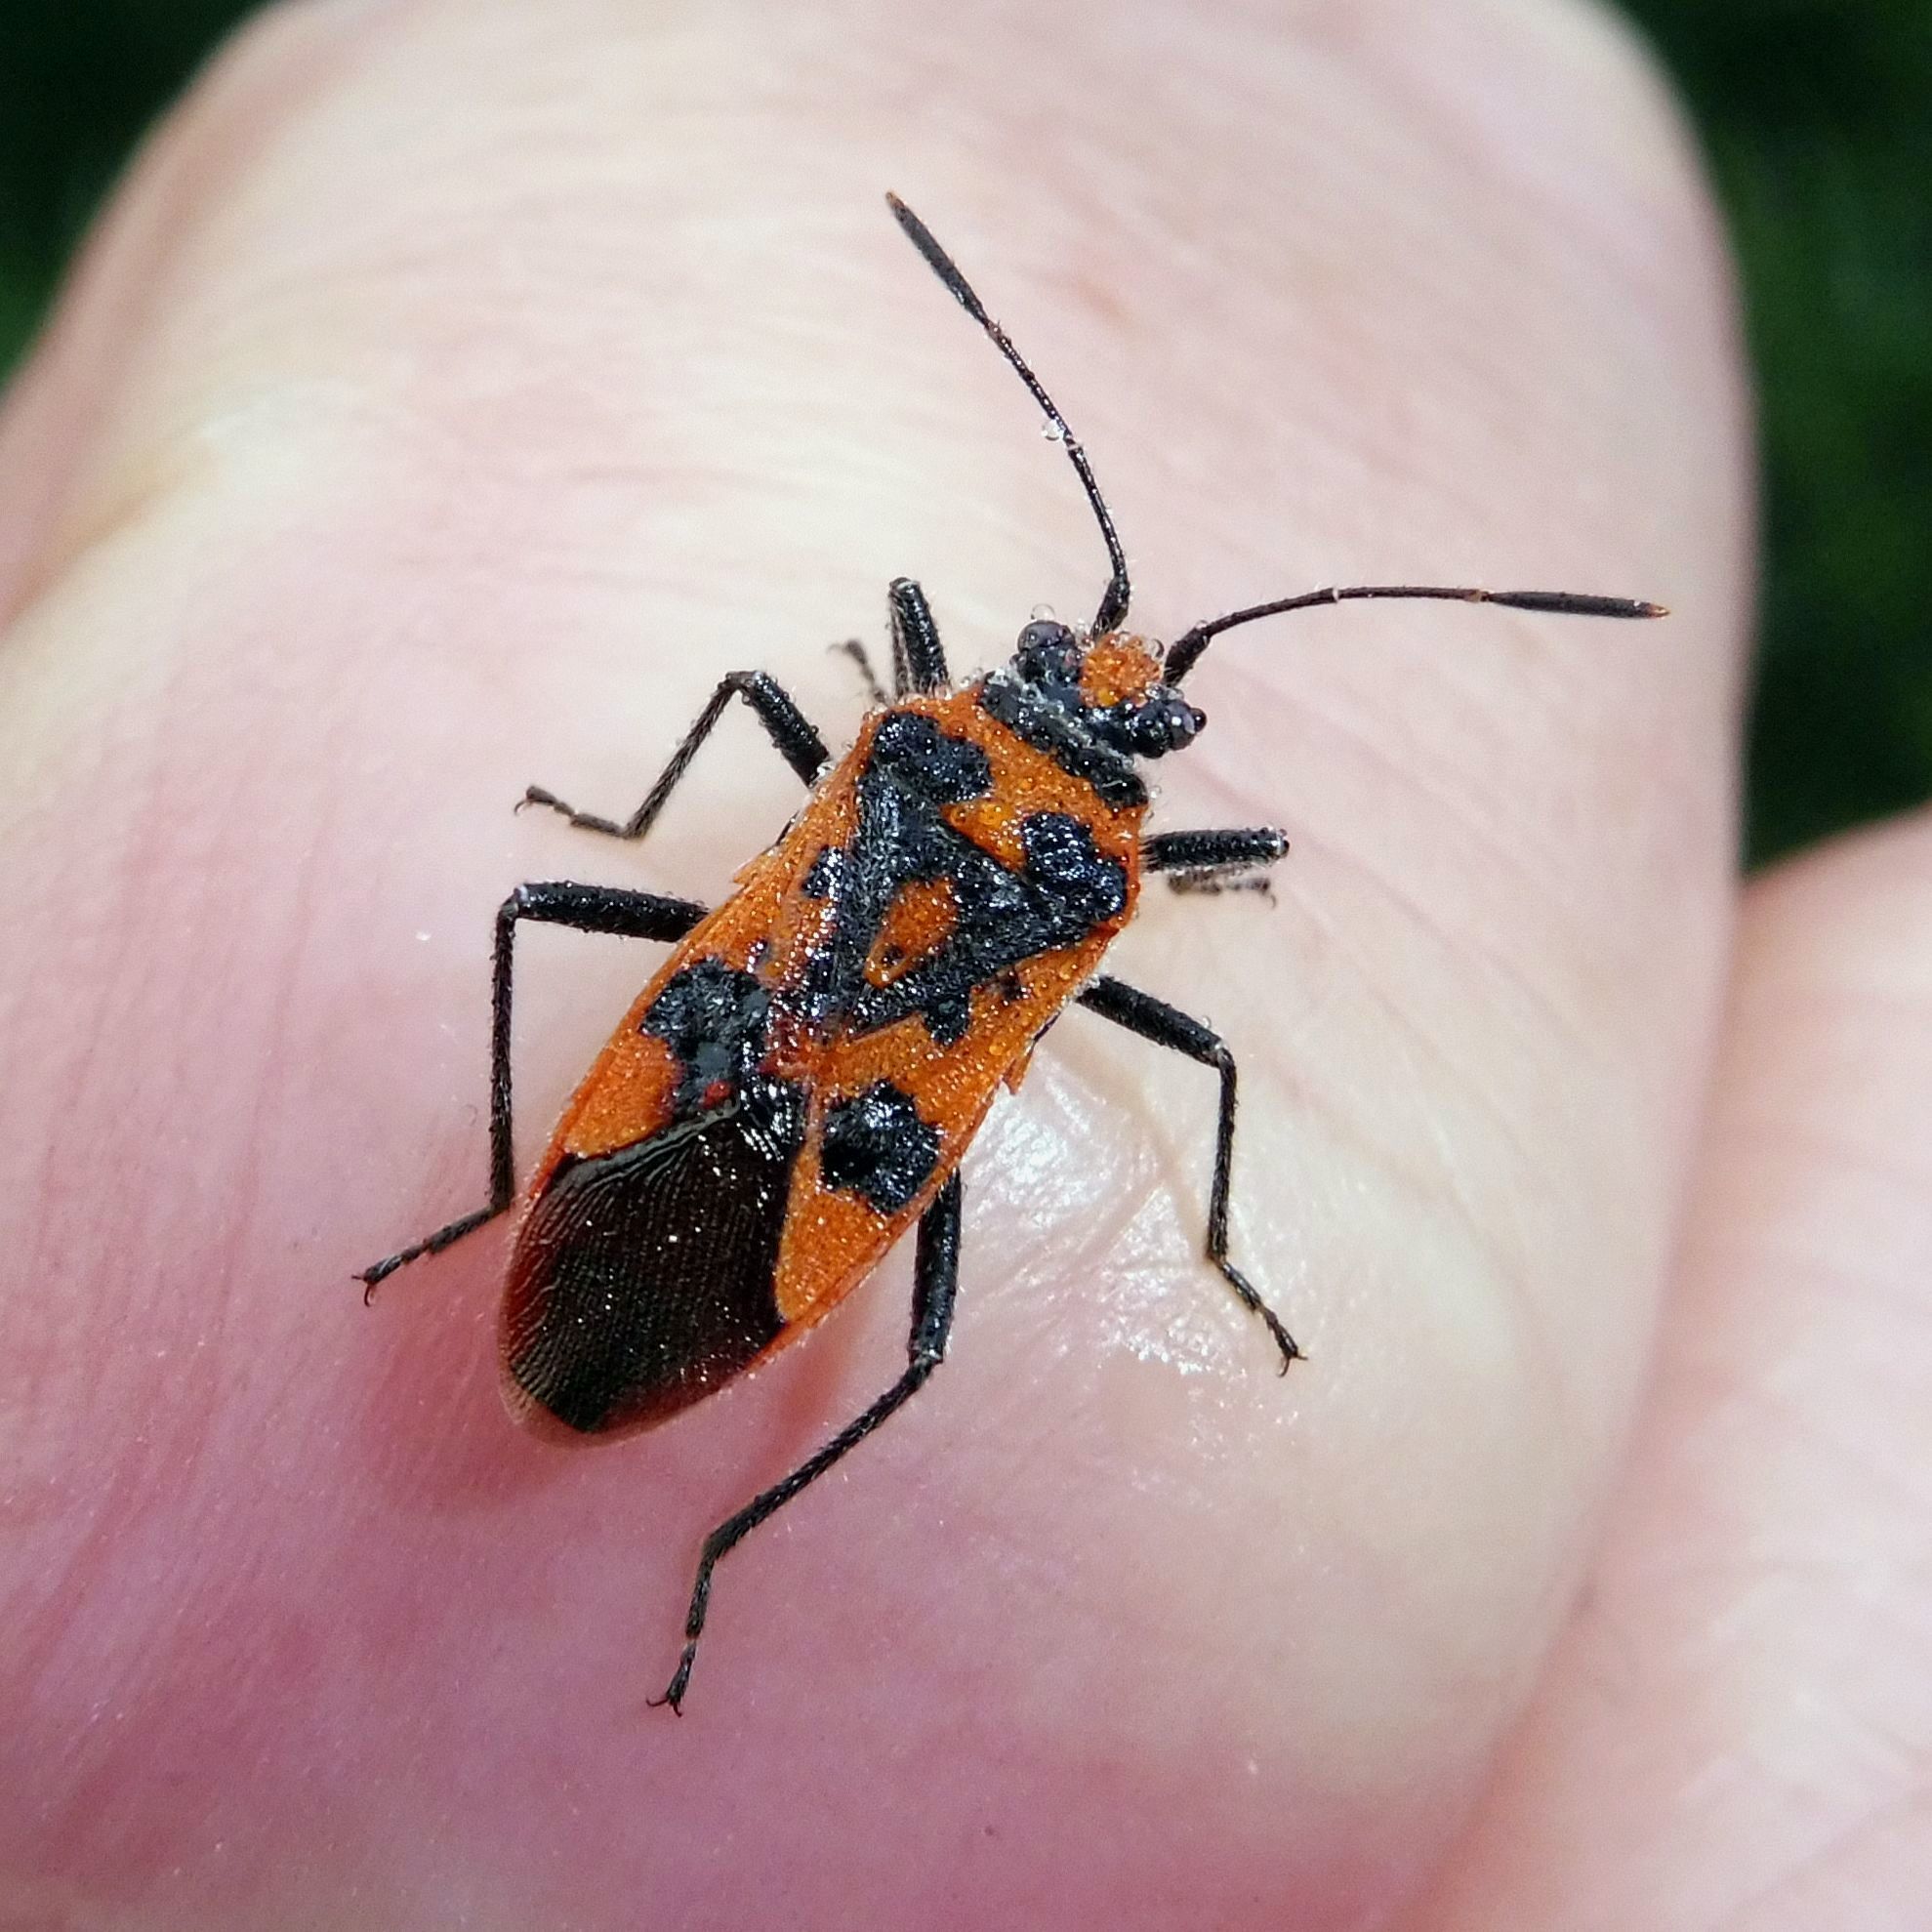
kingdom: Animalia
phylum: Arthropoda
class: Insecta
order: Hemiptera
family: Rhopalidae
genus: Corizus
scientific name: Corizus hyoscyami
